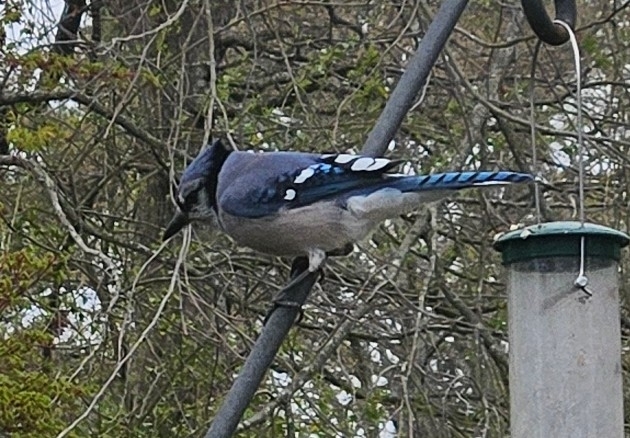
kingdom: Animalia
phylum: Chordata
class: Aves
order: Passeriformes
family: Corvidae
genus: Cyanocitta
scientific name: Cyanocitta cristata
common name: Blue jay
